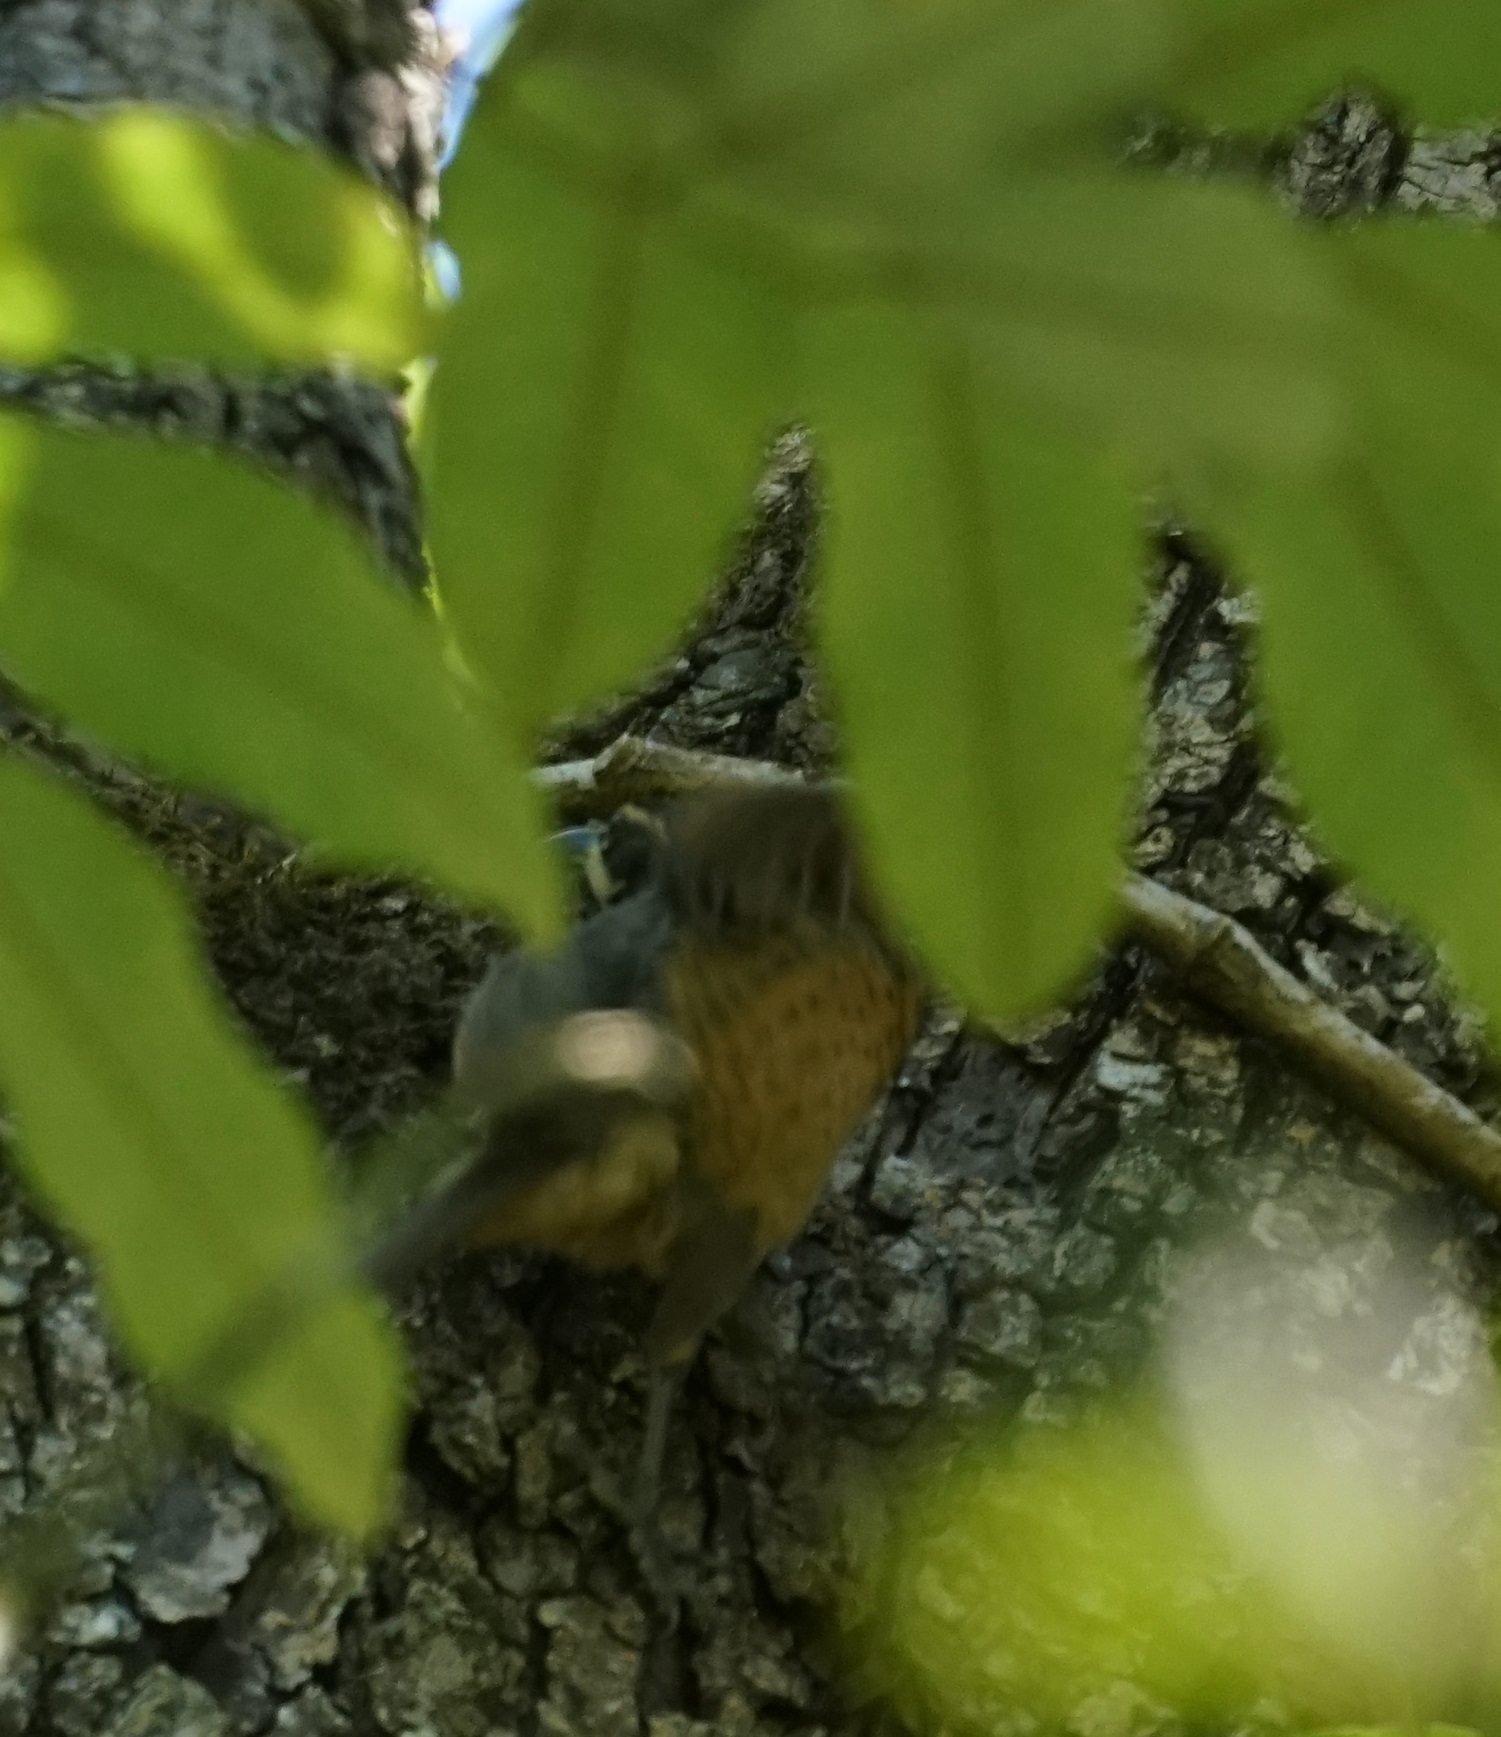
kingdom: Animalia
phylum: Chordata
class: Aves
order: Passeriformes
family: Paradisaeidae
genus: Ptiloris
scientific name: Ptiloris victoriae
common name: Victoria's riflebird
